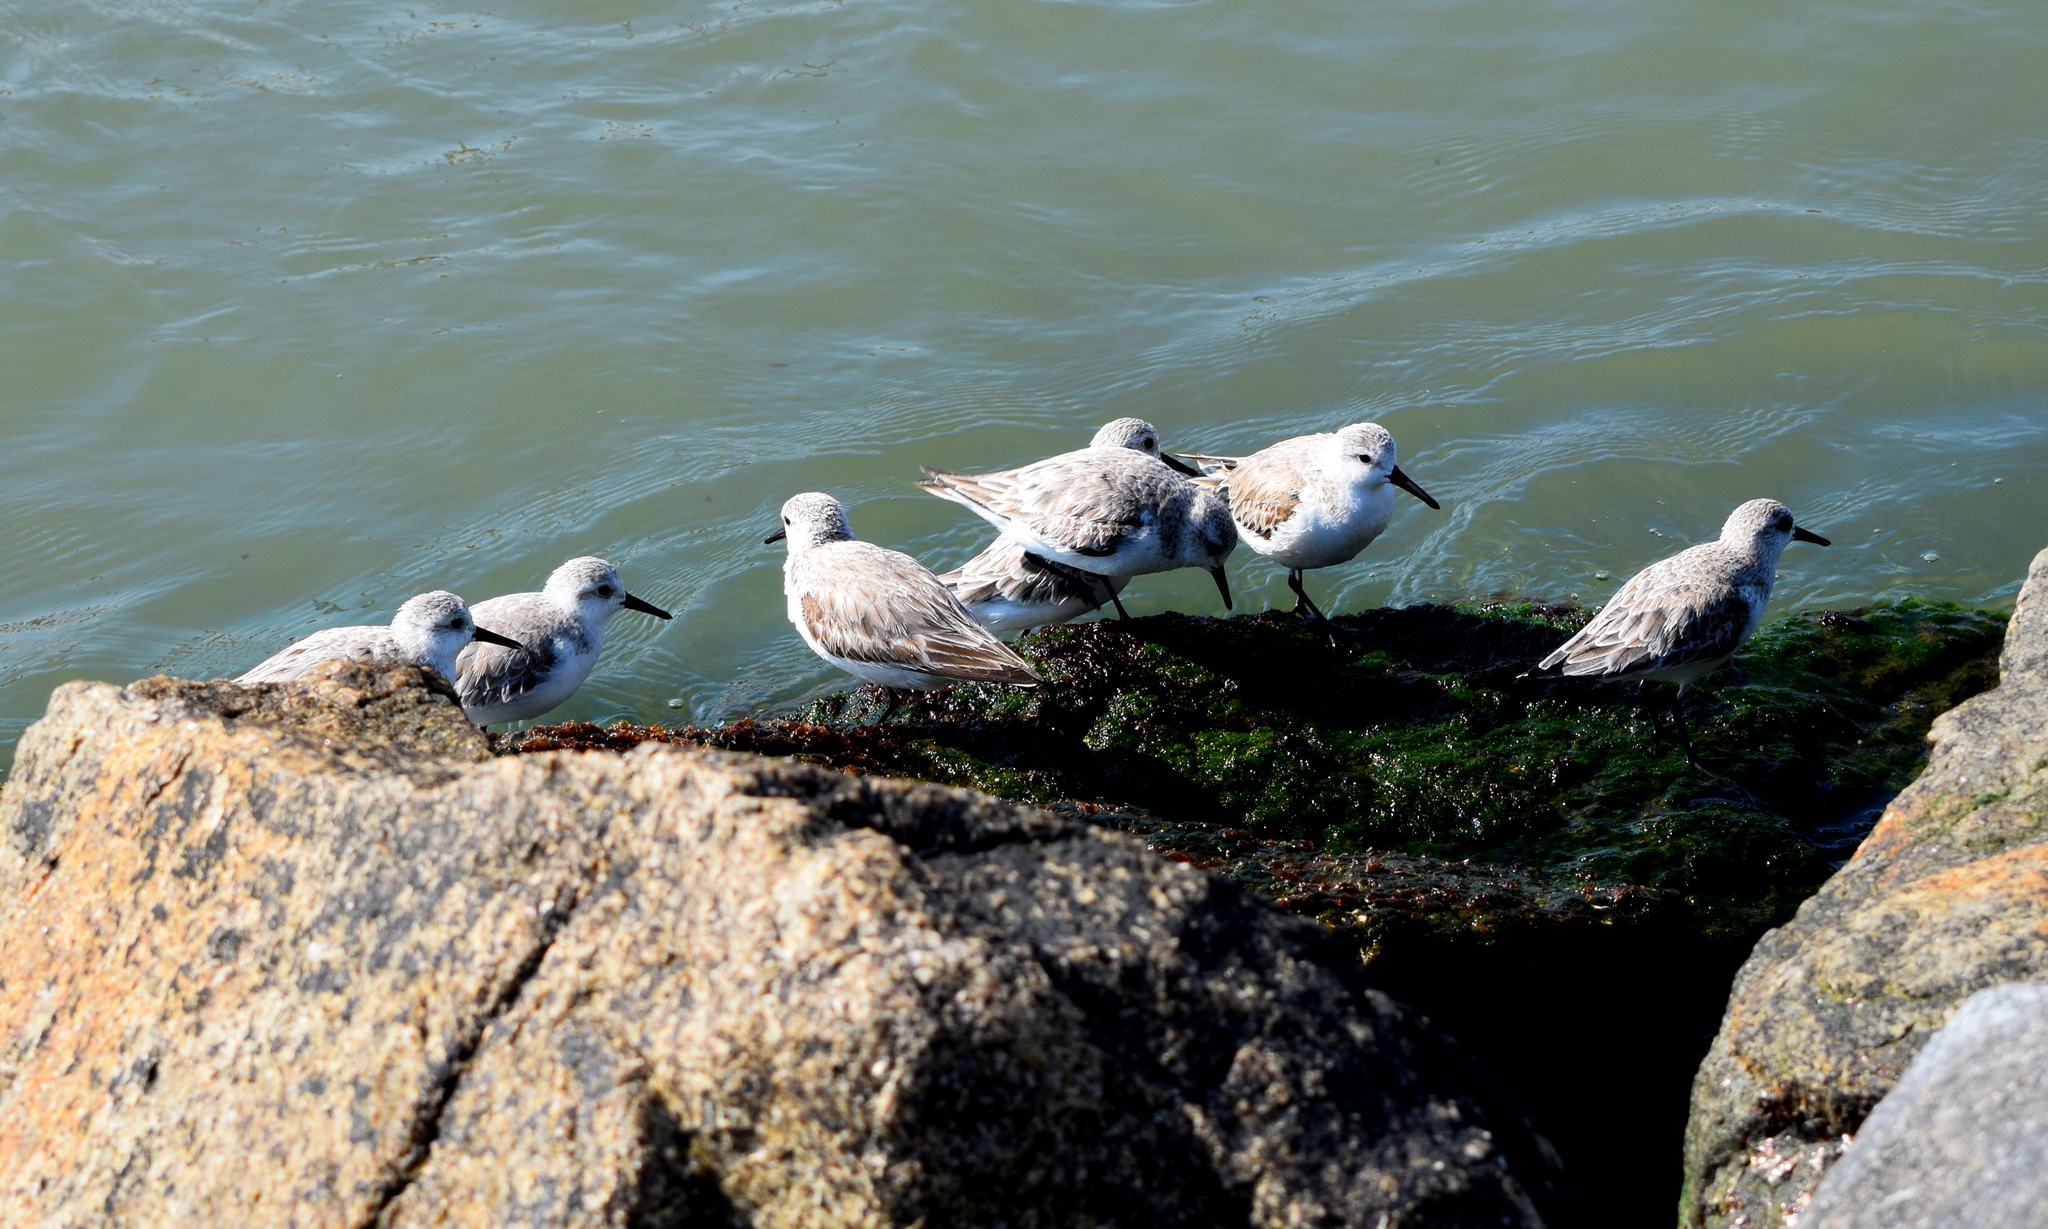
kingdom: Animalia
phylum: Chordata
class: Aves
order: Charadriiformes
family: Scolopacidae
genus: Calidris
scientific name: Calidris alba
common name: Sanderling
